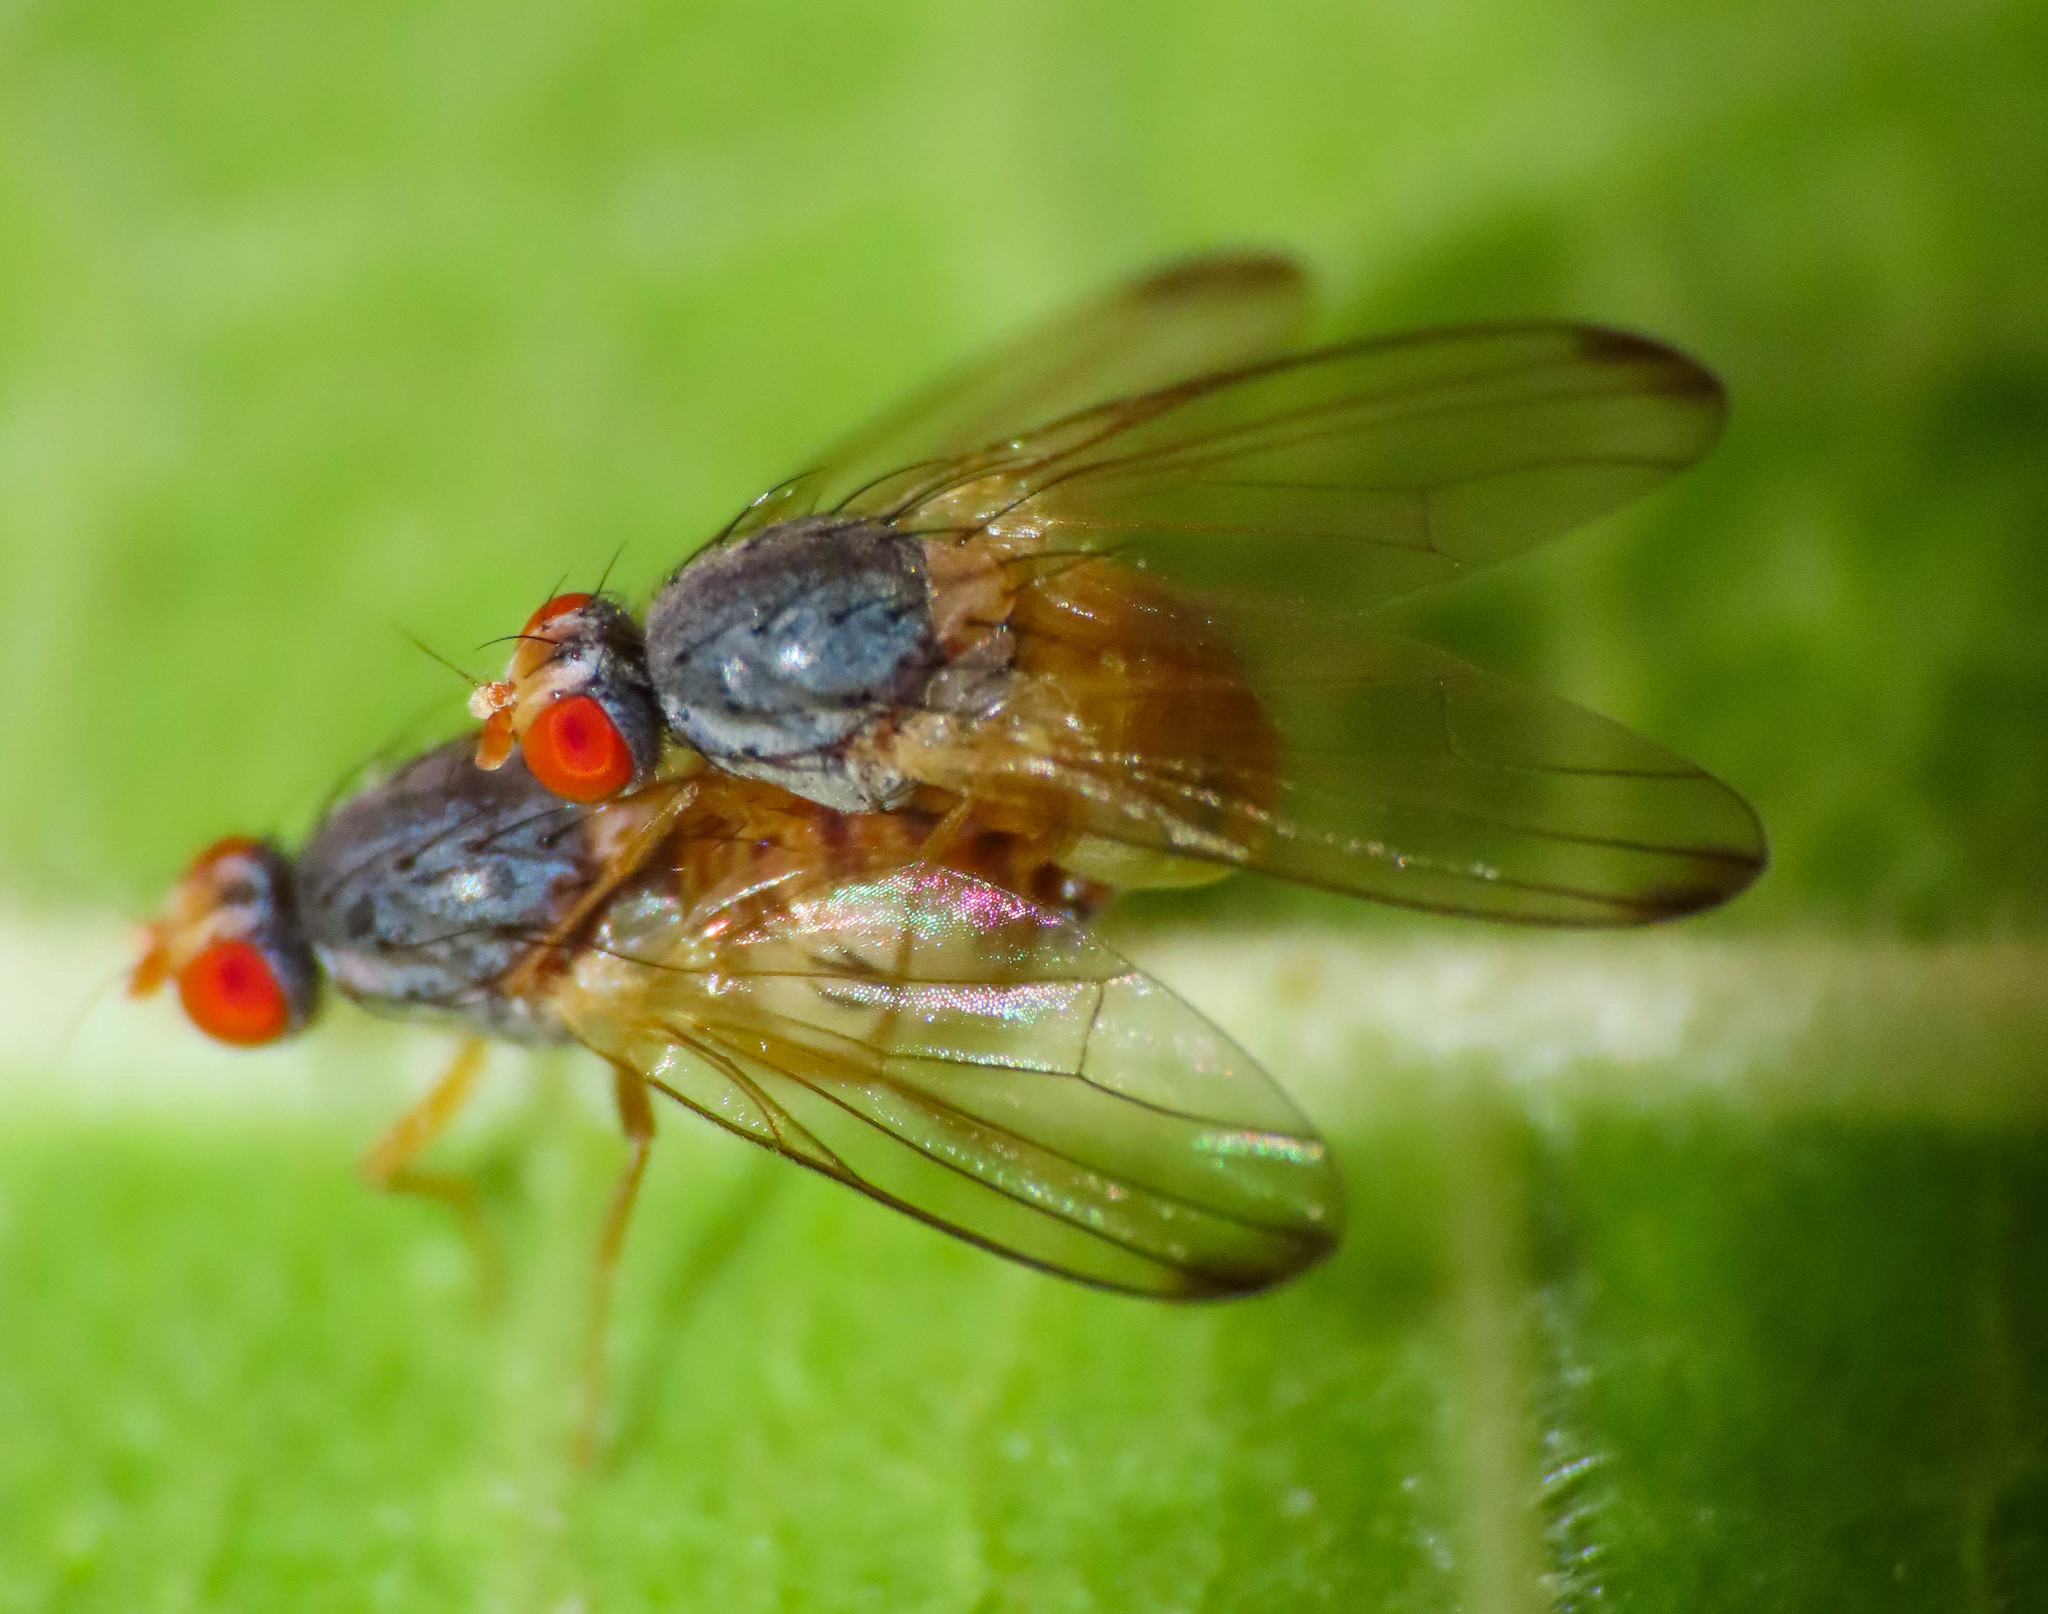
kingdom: Animalia
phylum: Arthropoda
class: Insecta
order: Diptera
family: Pallopteridae
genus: Palloptera
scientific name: Palloptera ustulata
